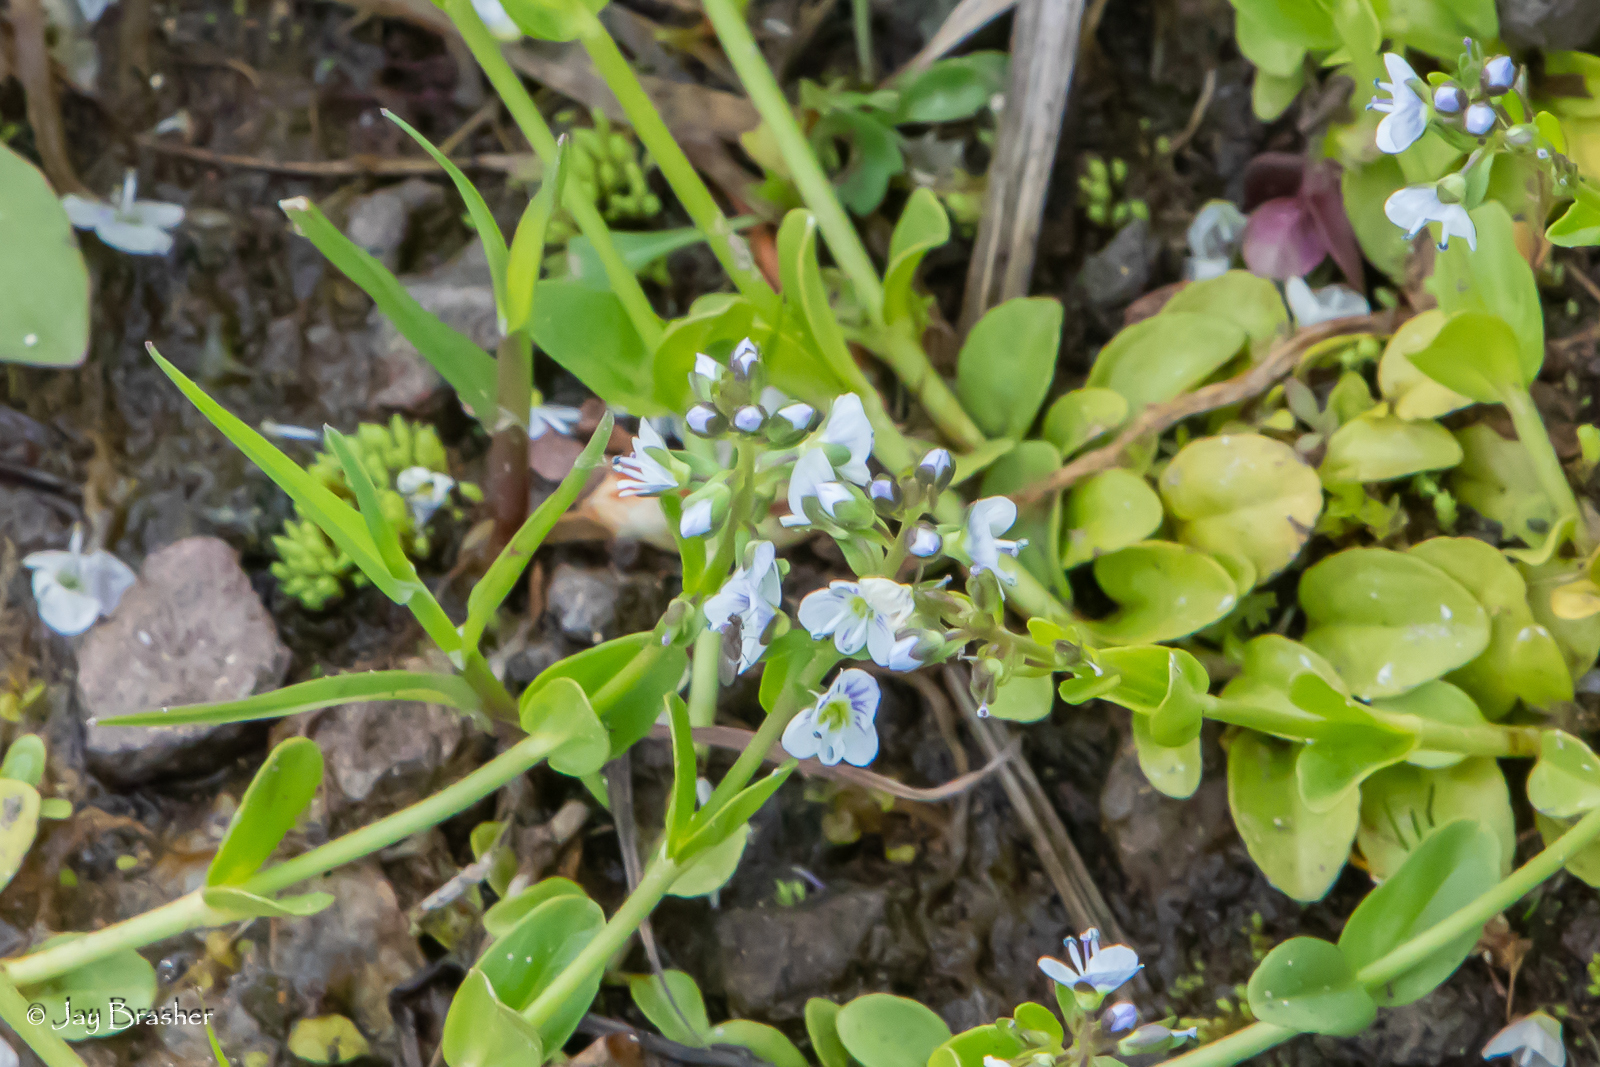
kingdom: Plantae
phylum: Tracheophyta
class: Magnoliopsida
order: Lamiales
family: Plantaginaceae
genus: Veronica
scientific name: Veronica serpyllifolia
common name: Thyme-leaved speedwell
